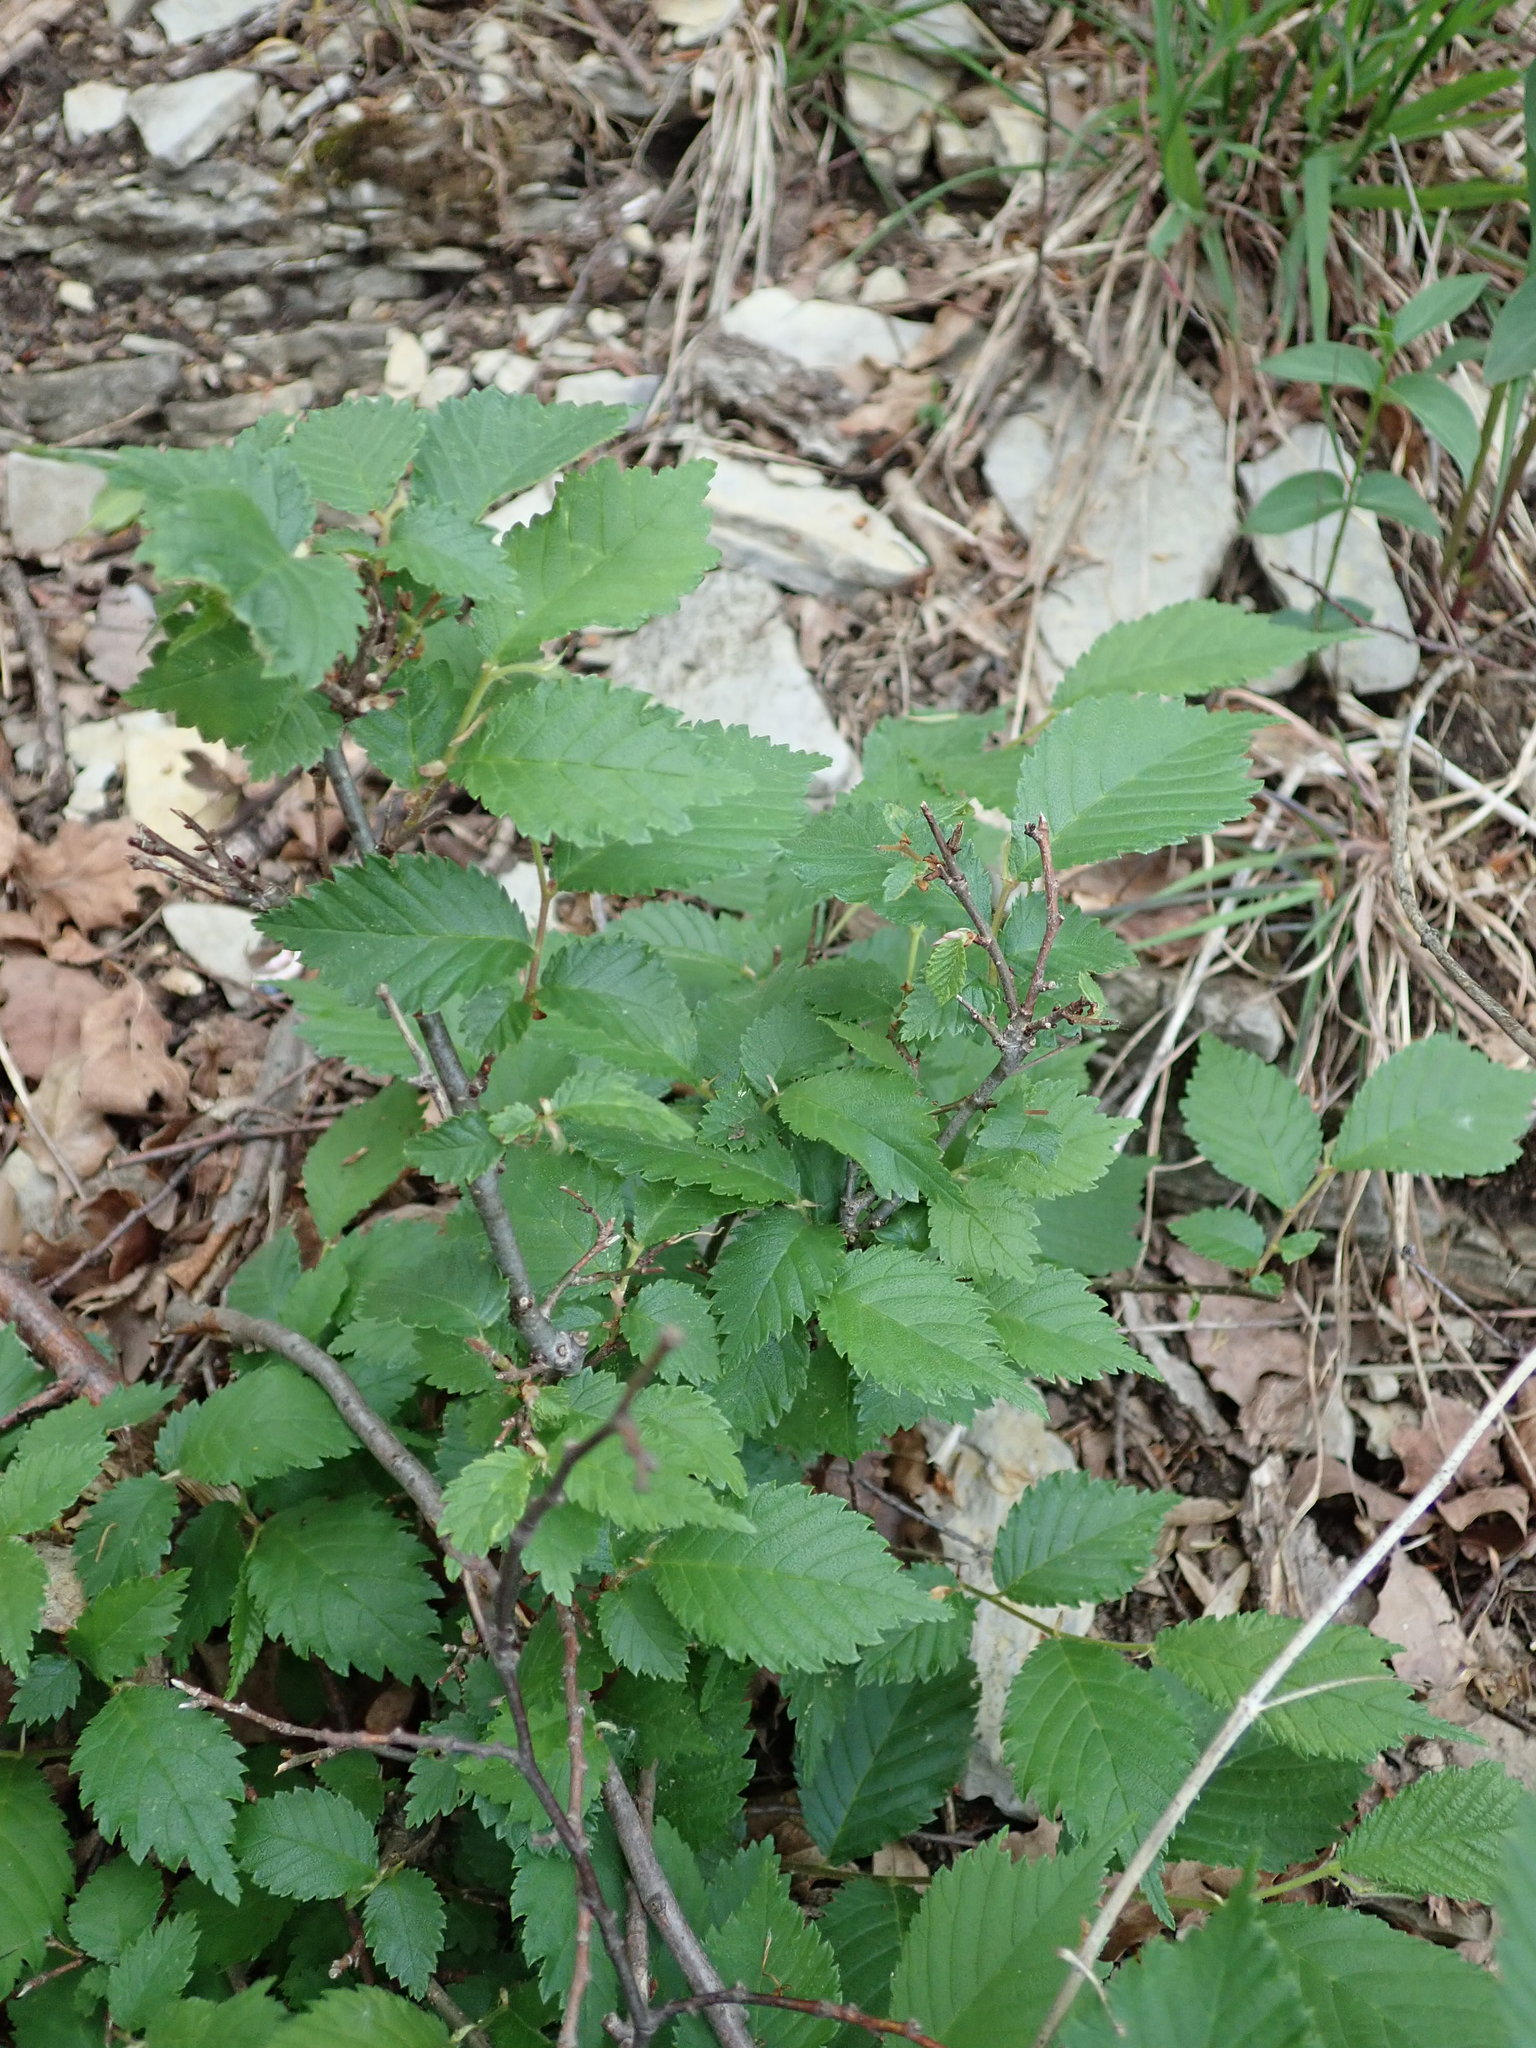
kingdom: Plantae
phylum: Tracheophyta
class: Magnoliopsida
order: Rosales
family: Ulmaceae
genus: Ulmus
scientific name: Ulmus glabra
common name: Wych elm
